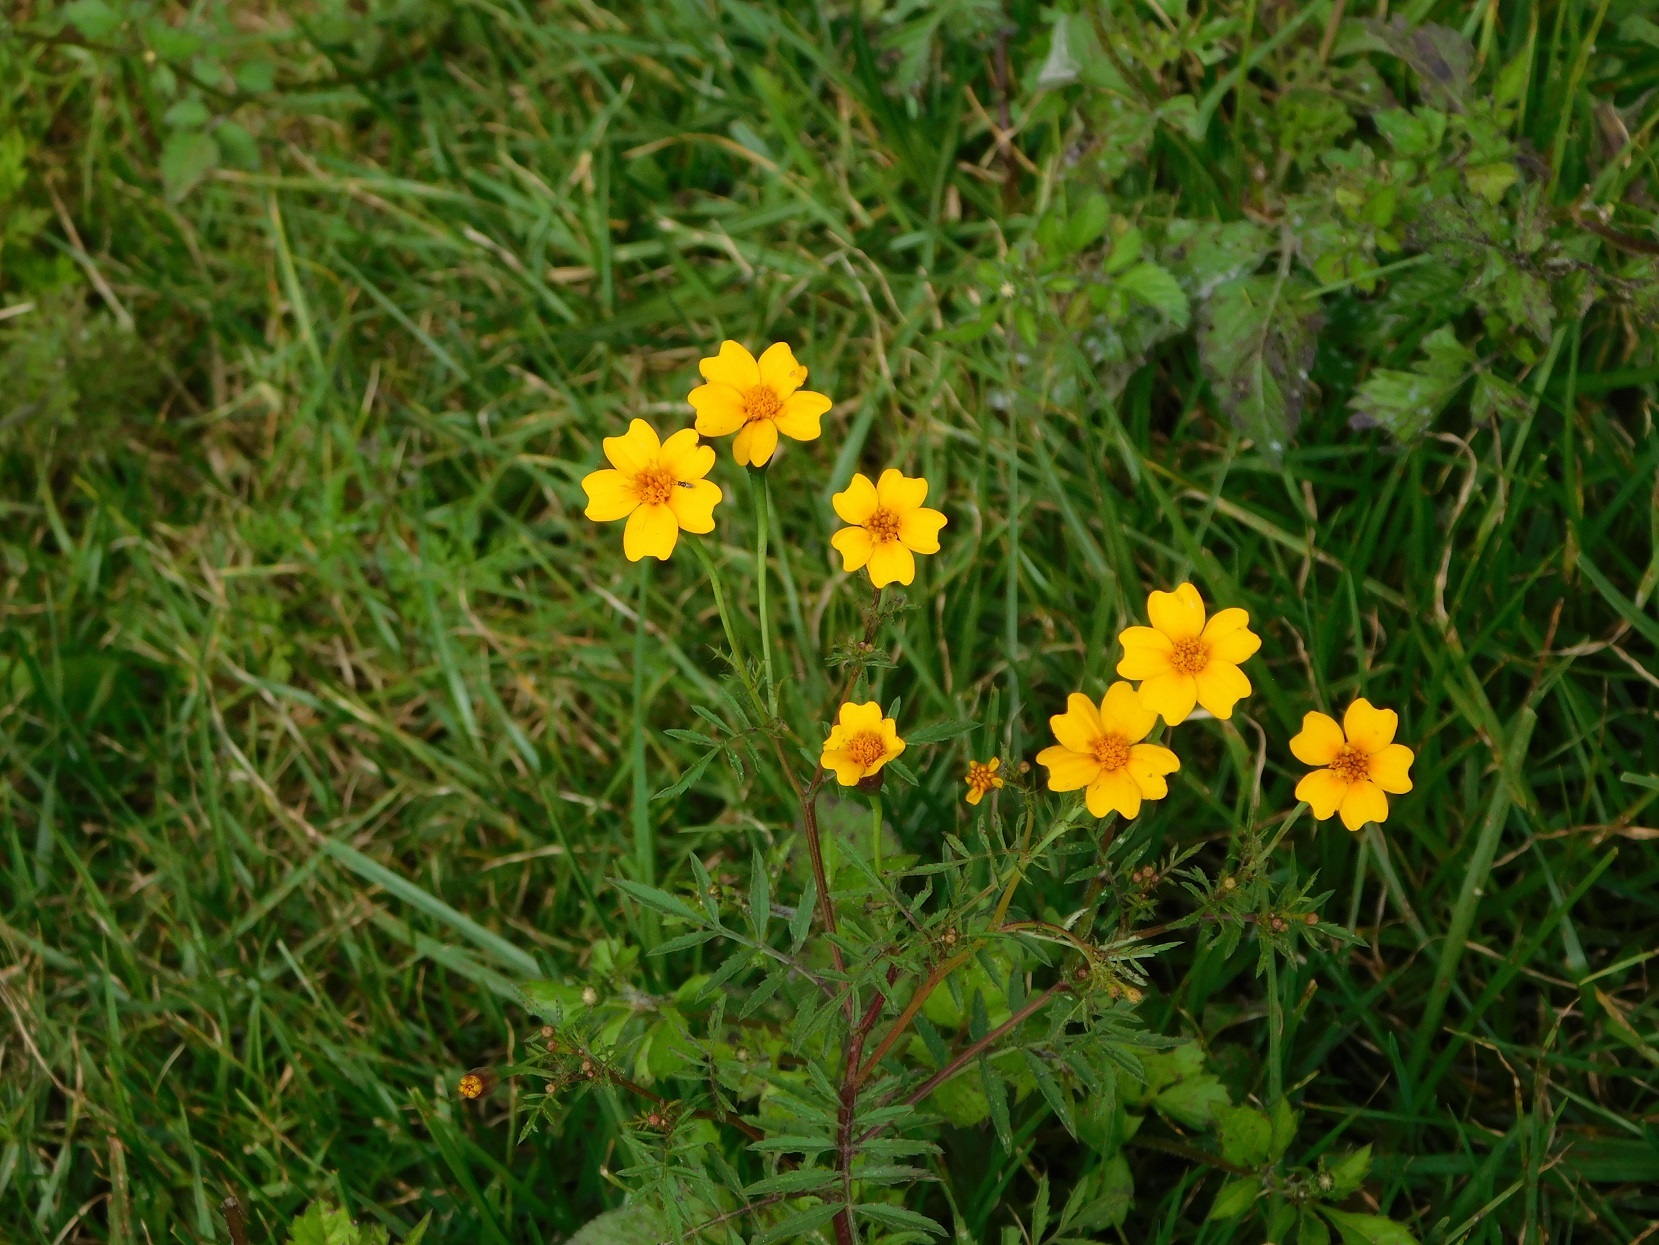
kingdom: Plantae
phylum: Tracheophyta
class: Magnoliopsida
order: Asterales
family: Asteraceae
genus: Tagetes
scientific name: Tagetes tenuifolia
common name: Signet marigold
